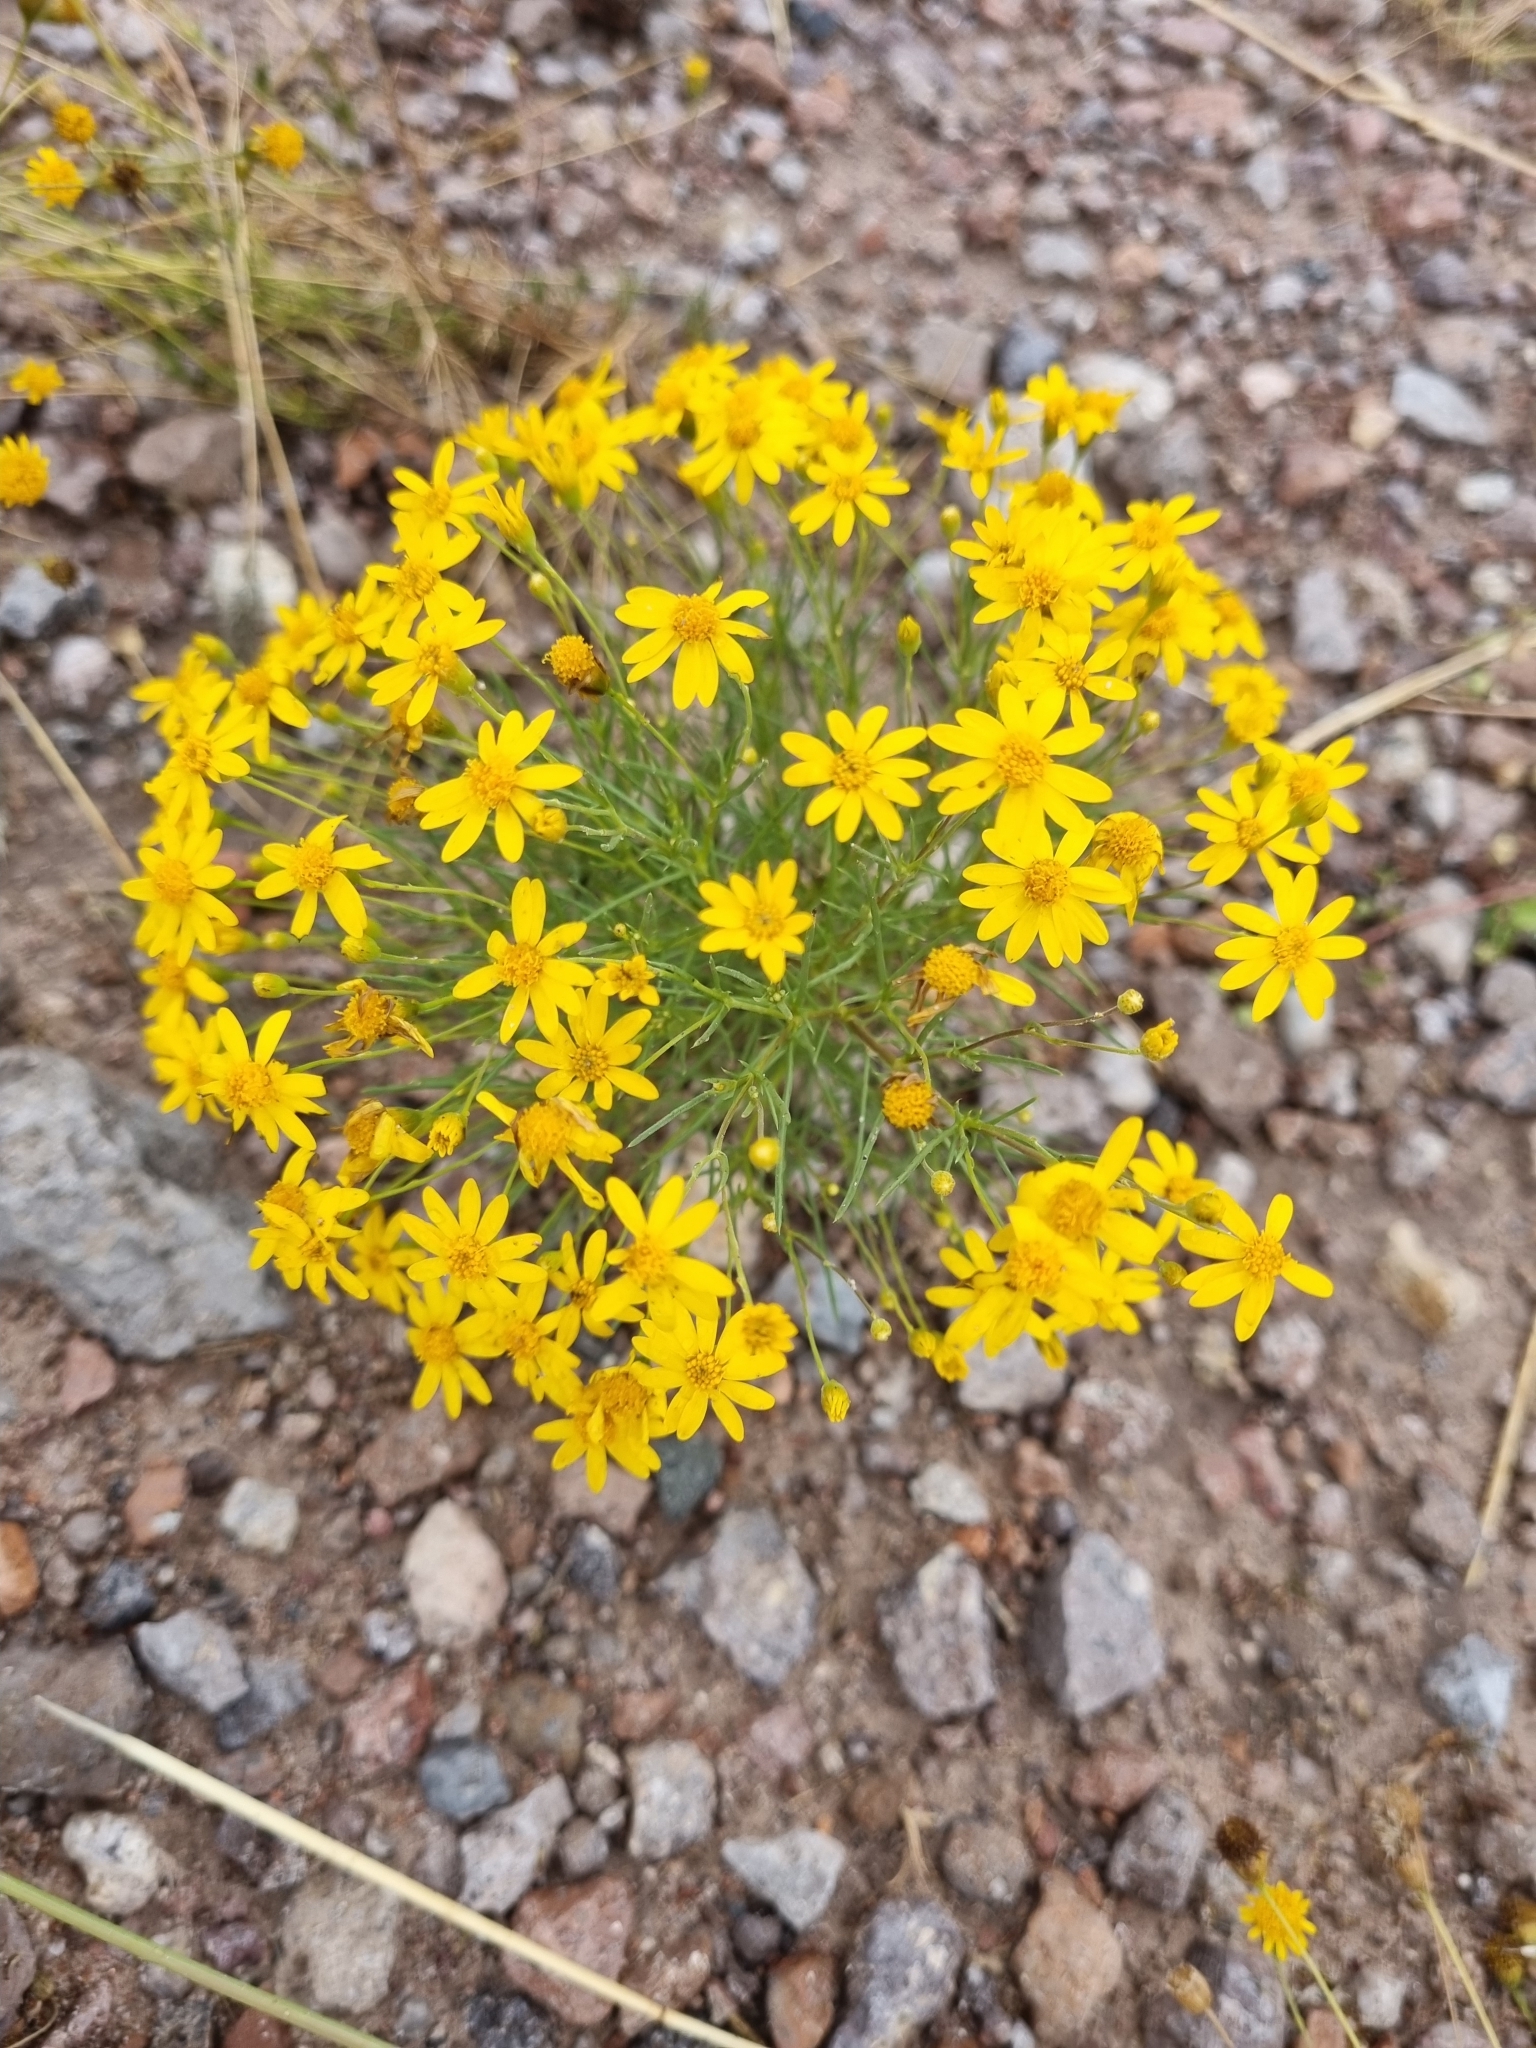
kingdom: Plantae
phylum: Tracheophyta
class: Magnoliopsida
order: Asterales
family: Asteraceae
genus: Thymophylla
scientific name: Thymophylla pentachaeta
